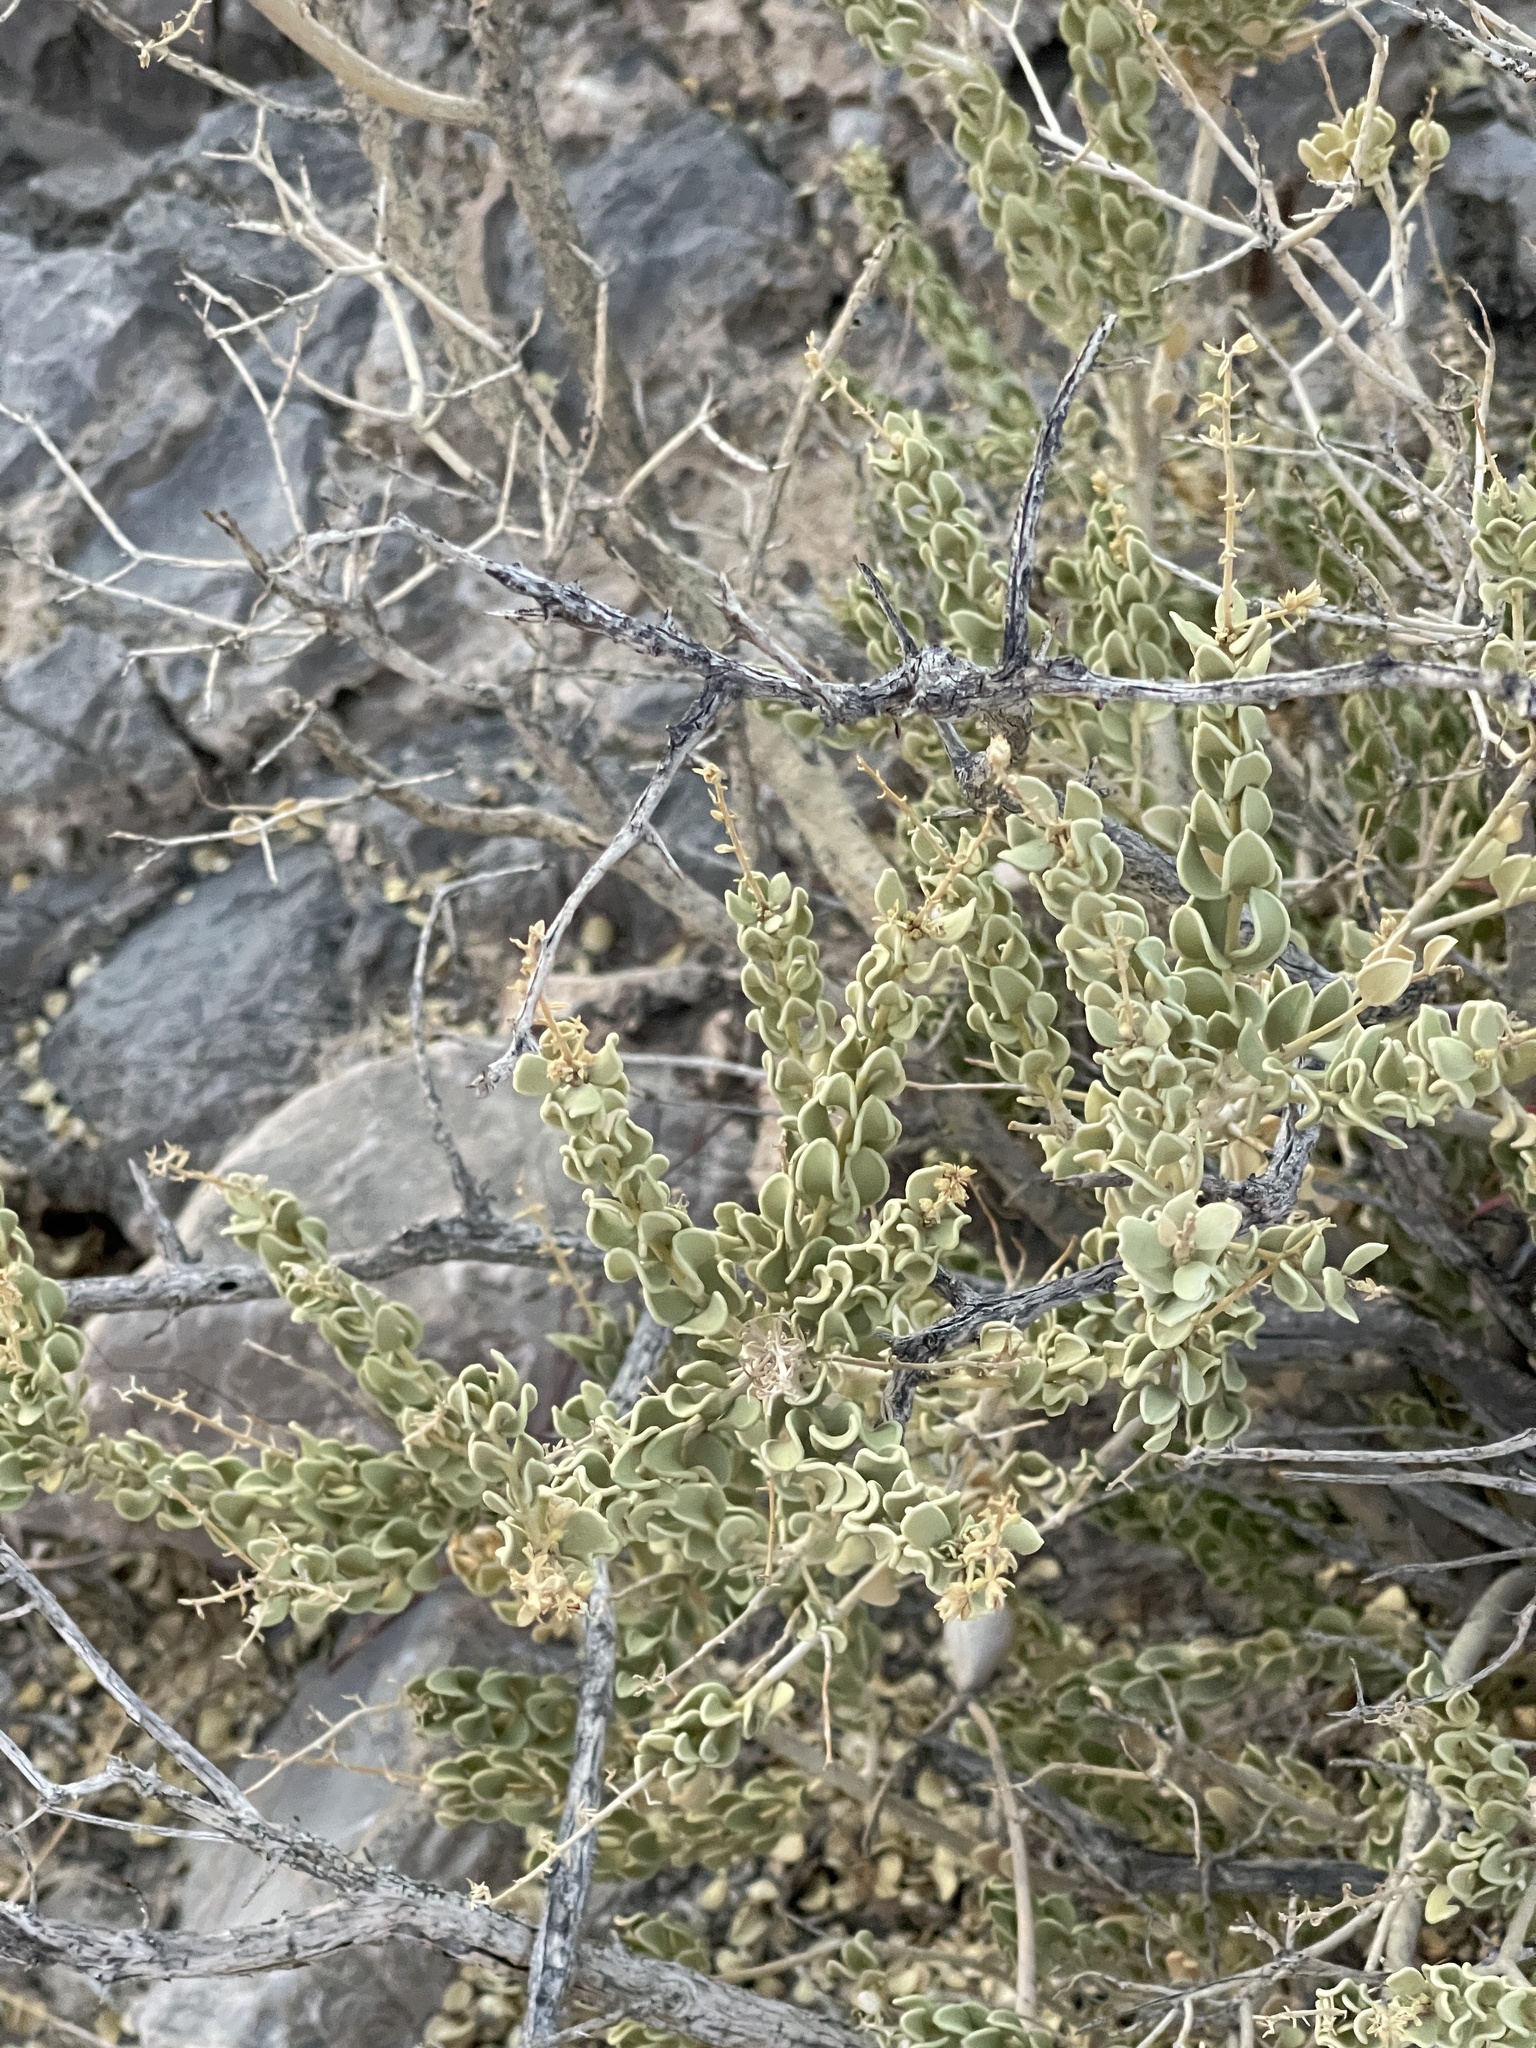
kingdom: Plantae
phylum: Tracheophyta
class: Magnoliopsida
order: Celastrales
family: Celastraceae
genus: Mortonia
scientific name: Mortonia utahensis
